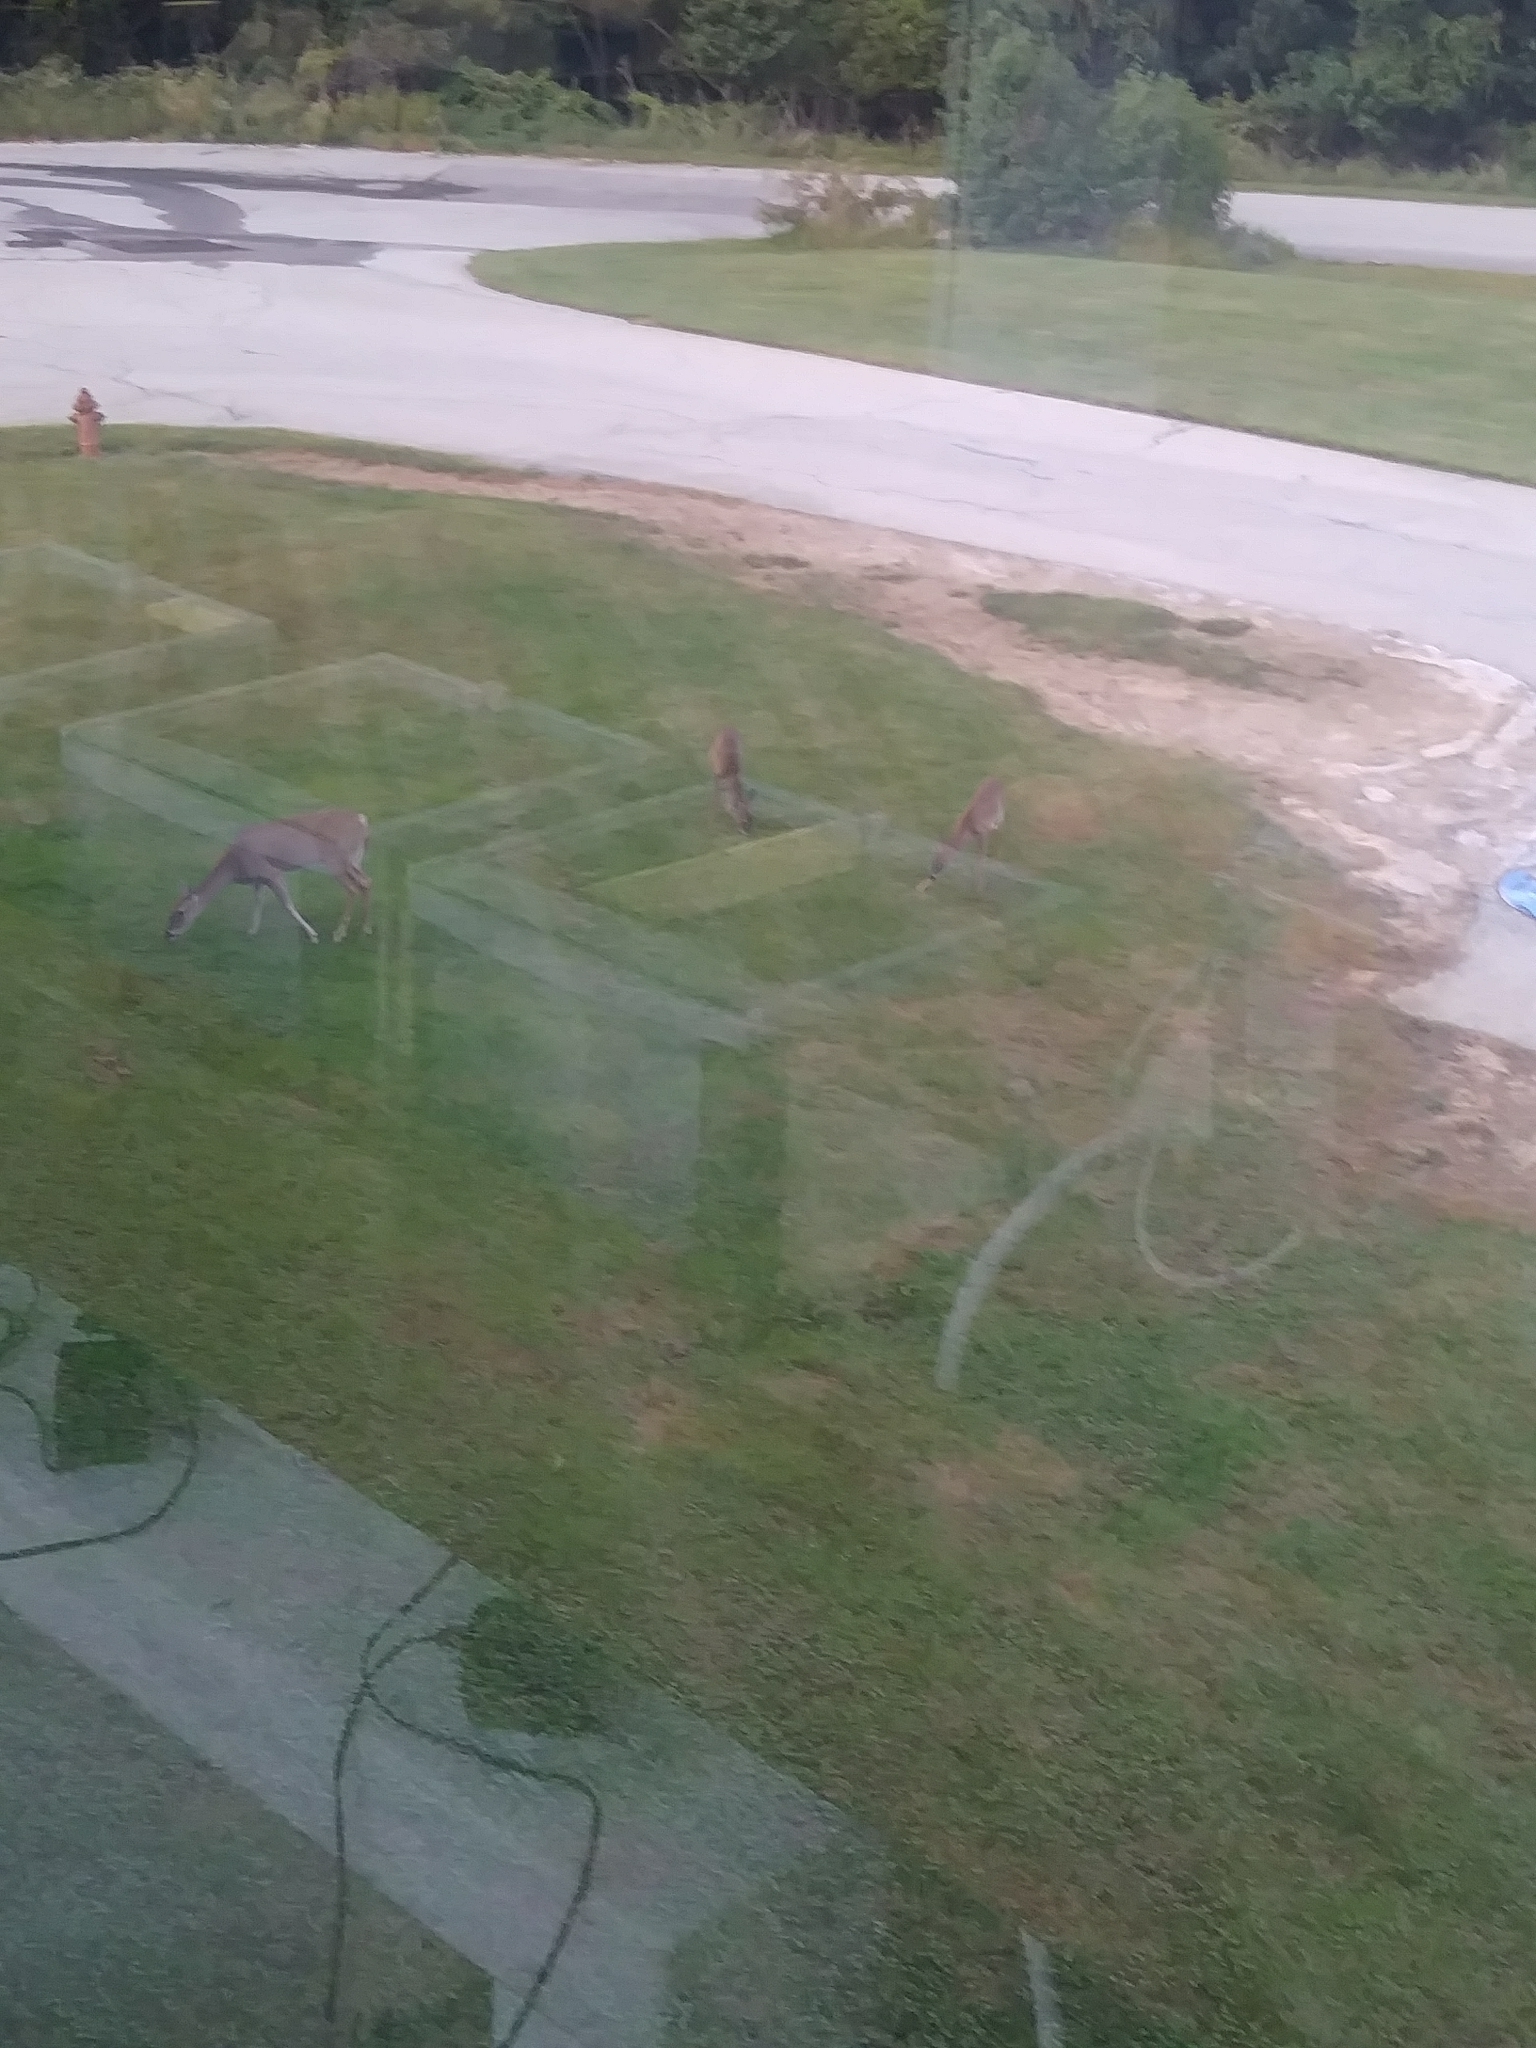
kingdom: Animalia
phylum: Chordata
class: Mammalia
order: Artiodactyla
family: Cervidae
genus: Odocoileus
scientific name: Odocoileus virginianus
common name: White-tailed deer
